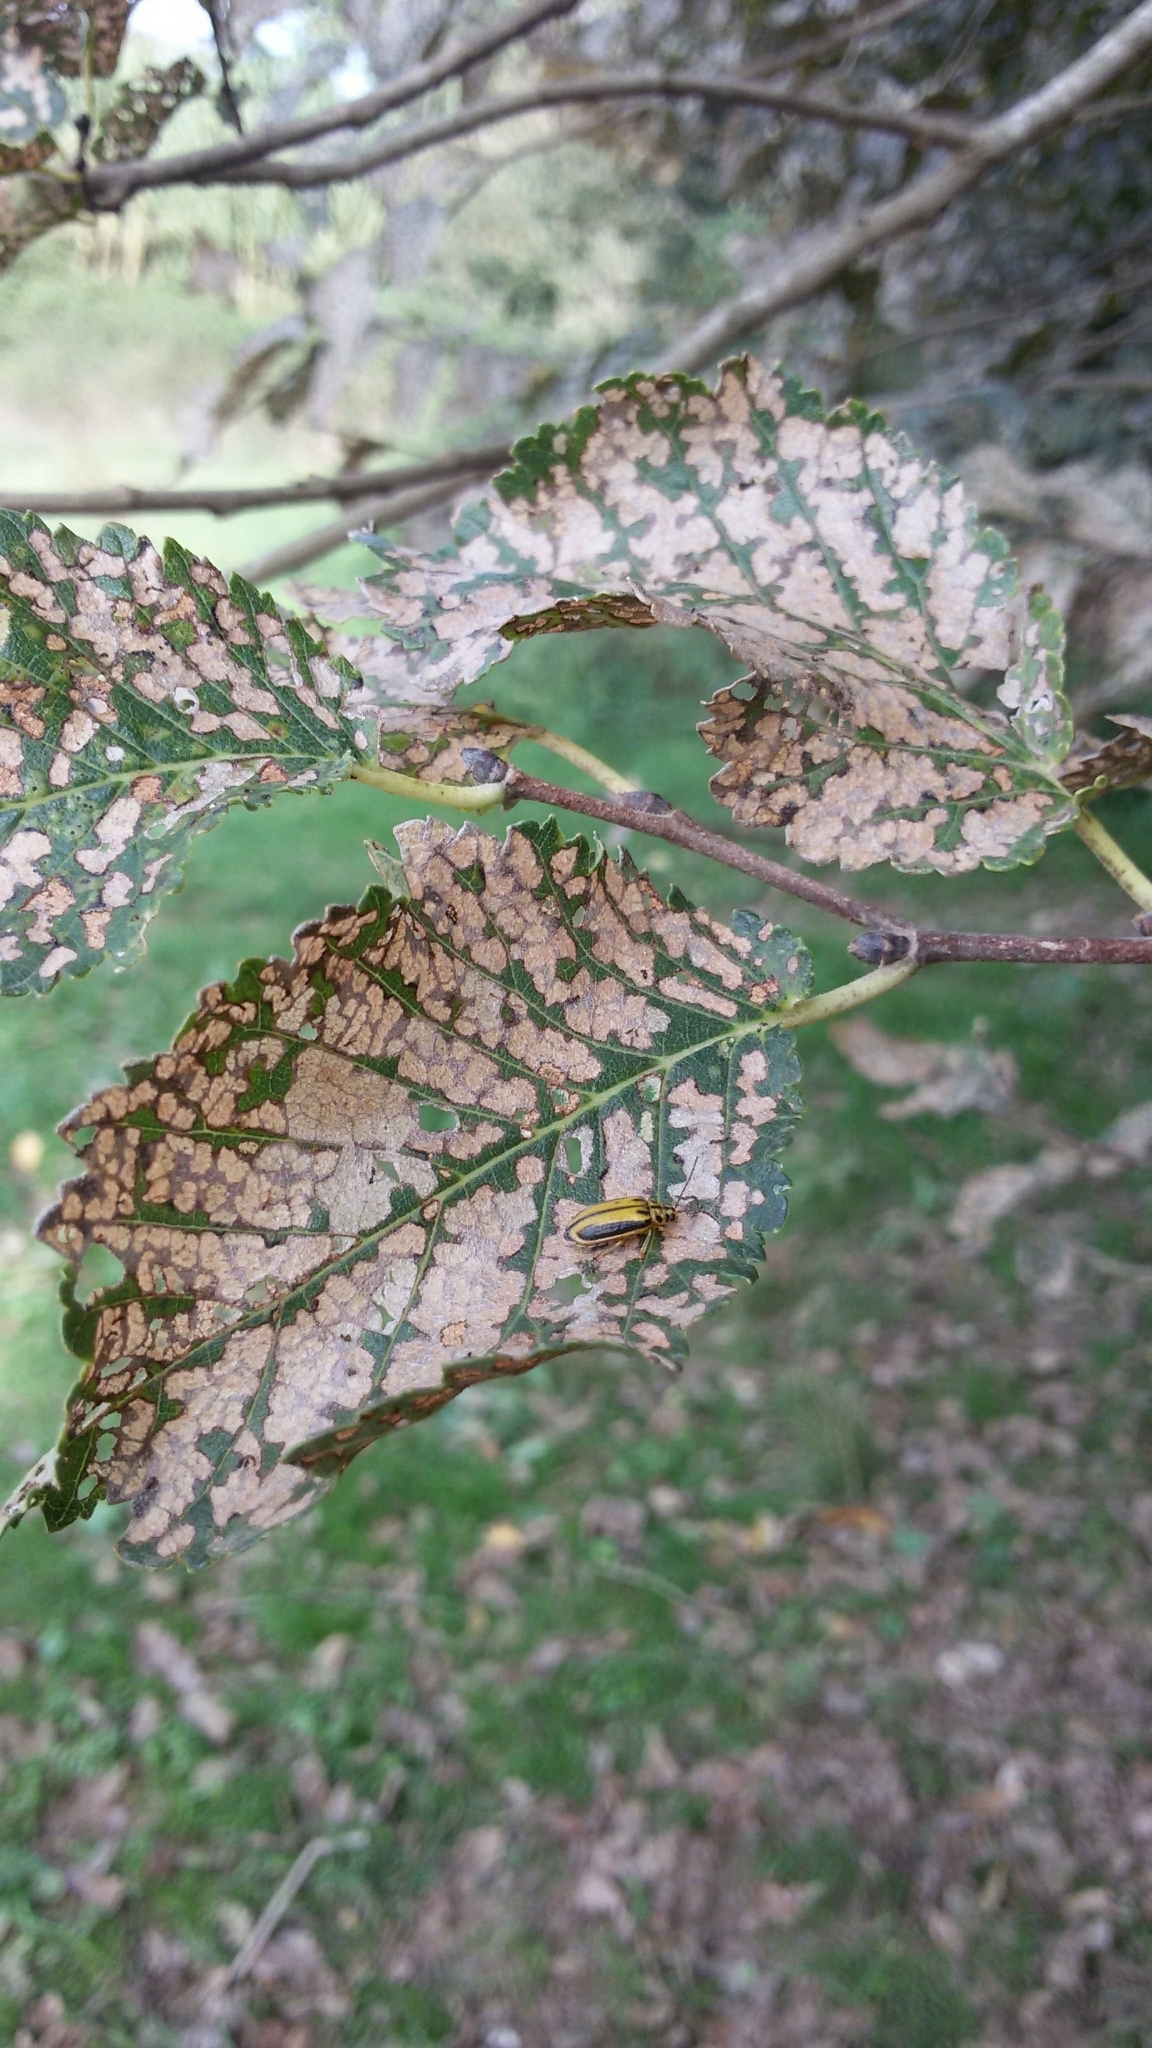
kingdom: Animalia
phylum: Arthropoda
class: Insecta
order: Coleoptera
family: Chrysomelidae
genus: Xanthogaleruca
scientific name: Xanthogaleruca luteola
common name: Elm leaf beetle
